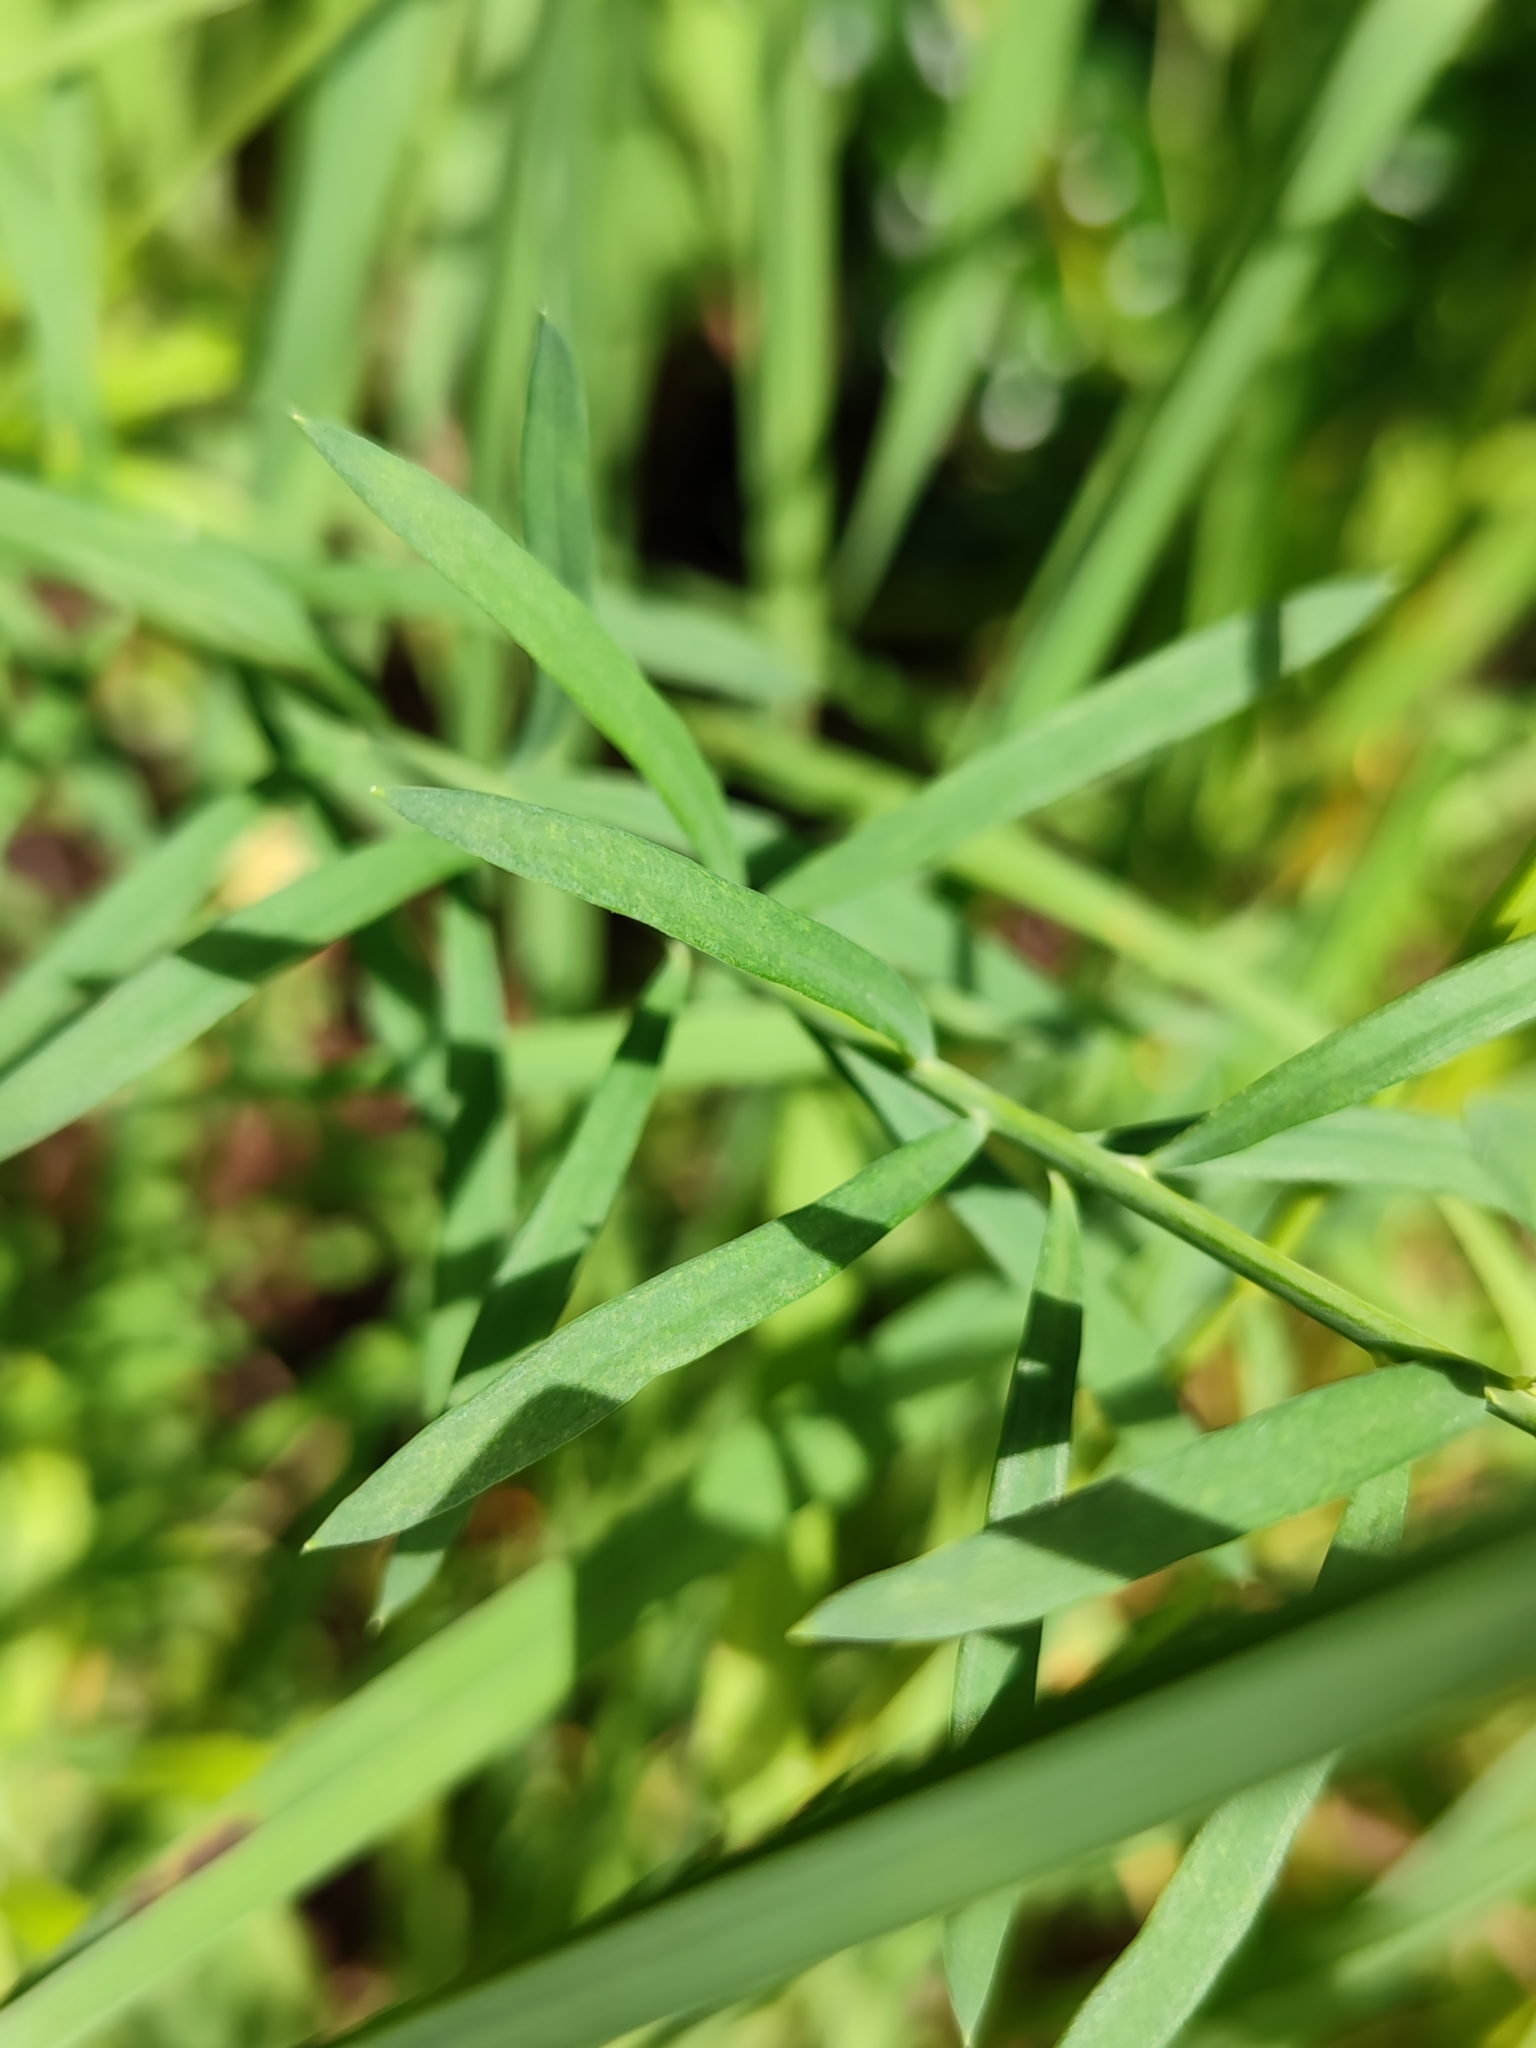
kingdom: Plantae
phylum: Tracheophyta
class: Magnoliopsida
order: Lamiales
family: Plantaginaceae
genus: Linaria
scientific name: Linaria repens
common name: Pale toadflax
